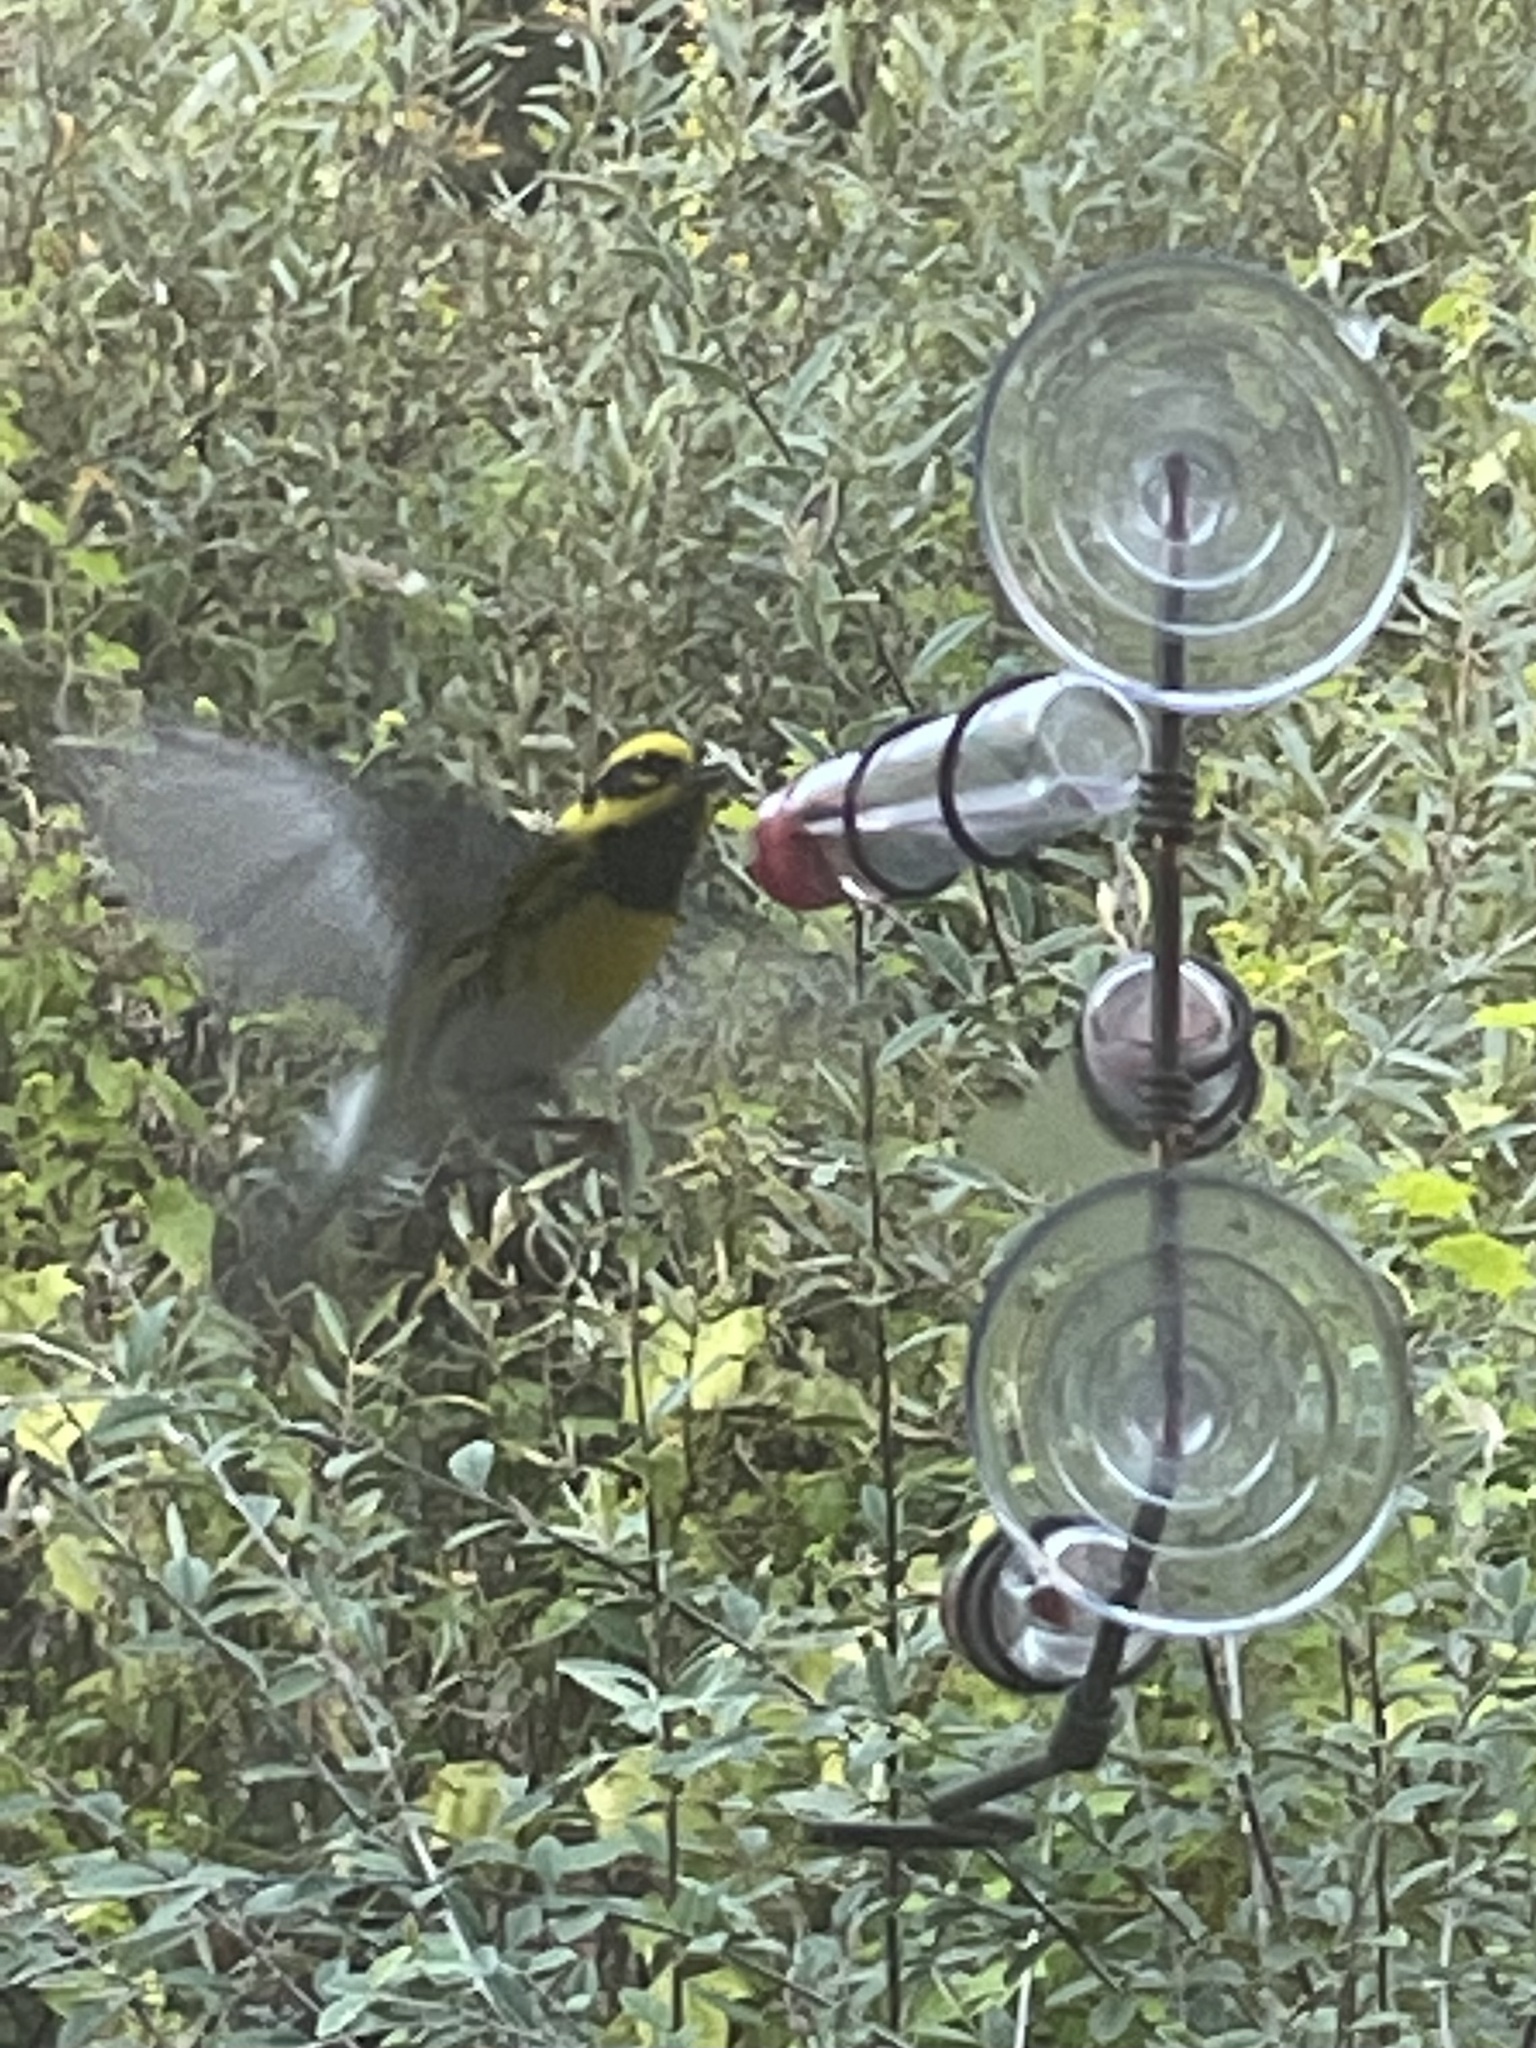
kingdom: Animalia
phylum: Chordata
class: Aves
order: Passeriformes
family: Parulidae
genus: Setophaga
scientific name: Setophaga townsendi
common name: Townsend's warbler
